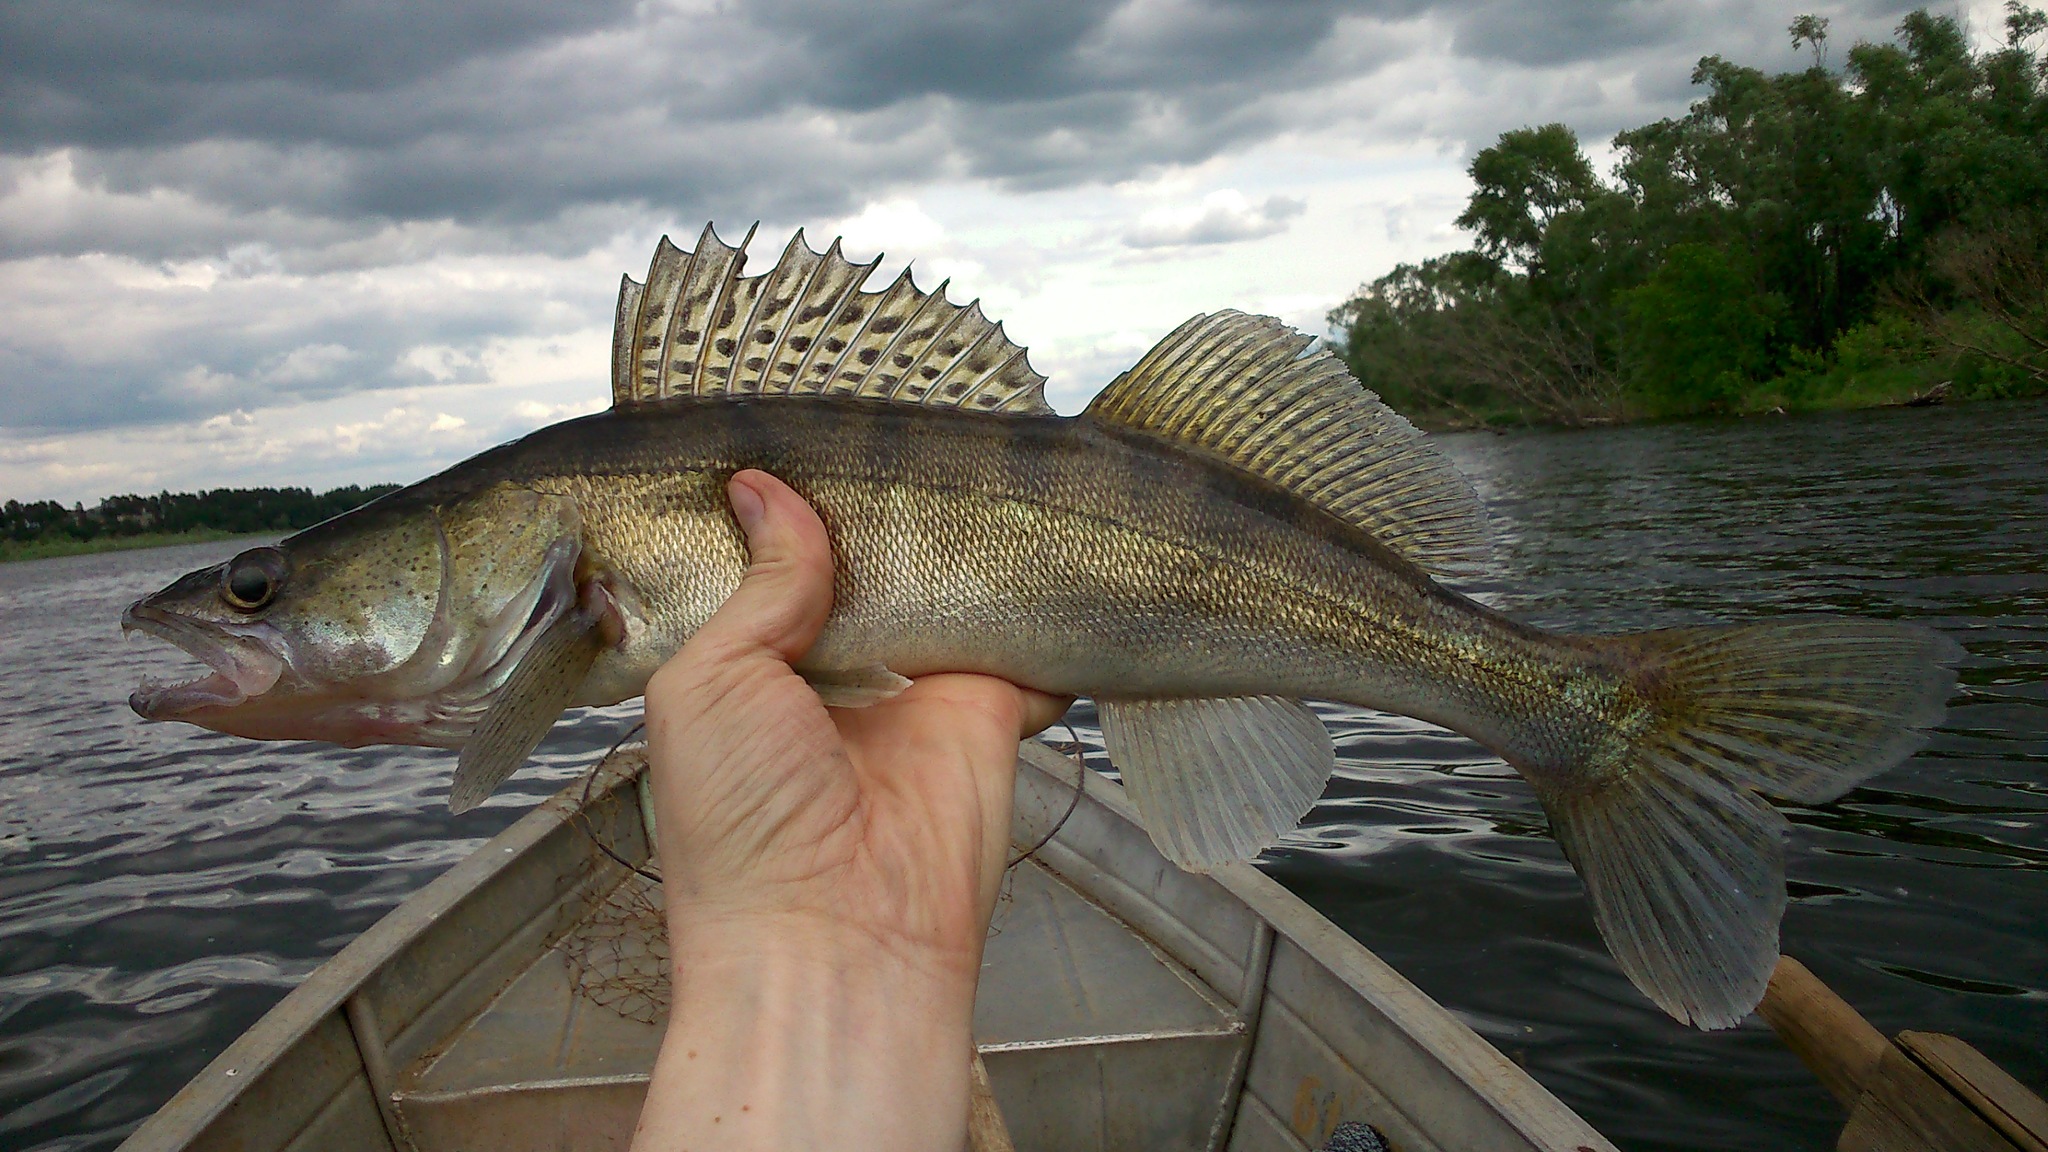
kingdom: Animalia
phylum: Chordata
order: Perciformes
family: Percidae
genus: Sander
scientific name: Sander lucioperca
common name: Pikeperch
